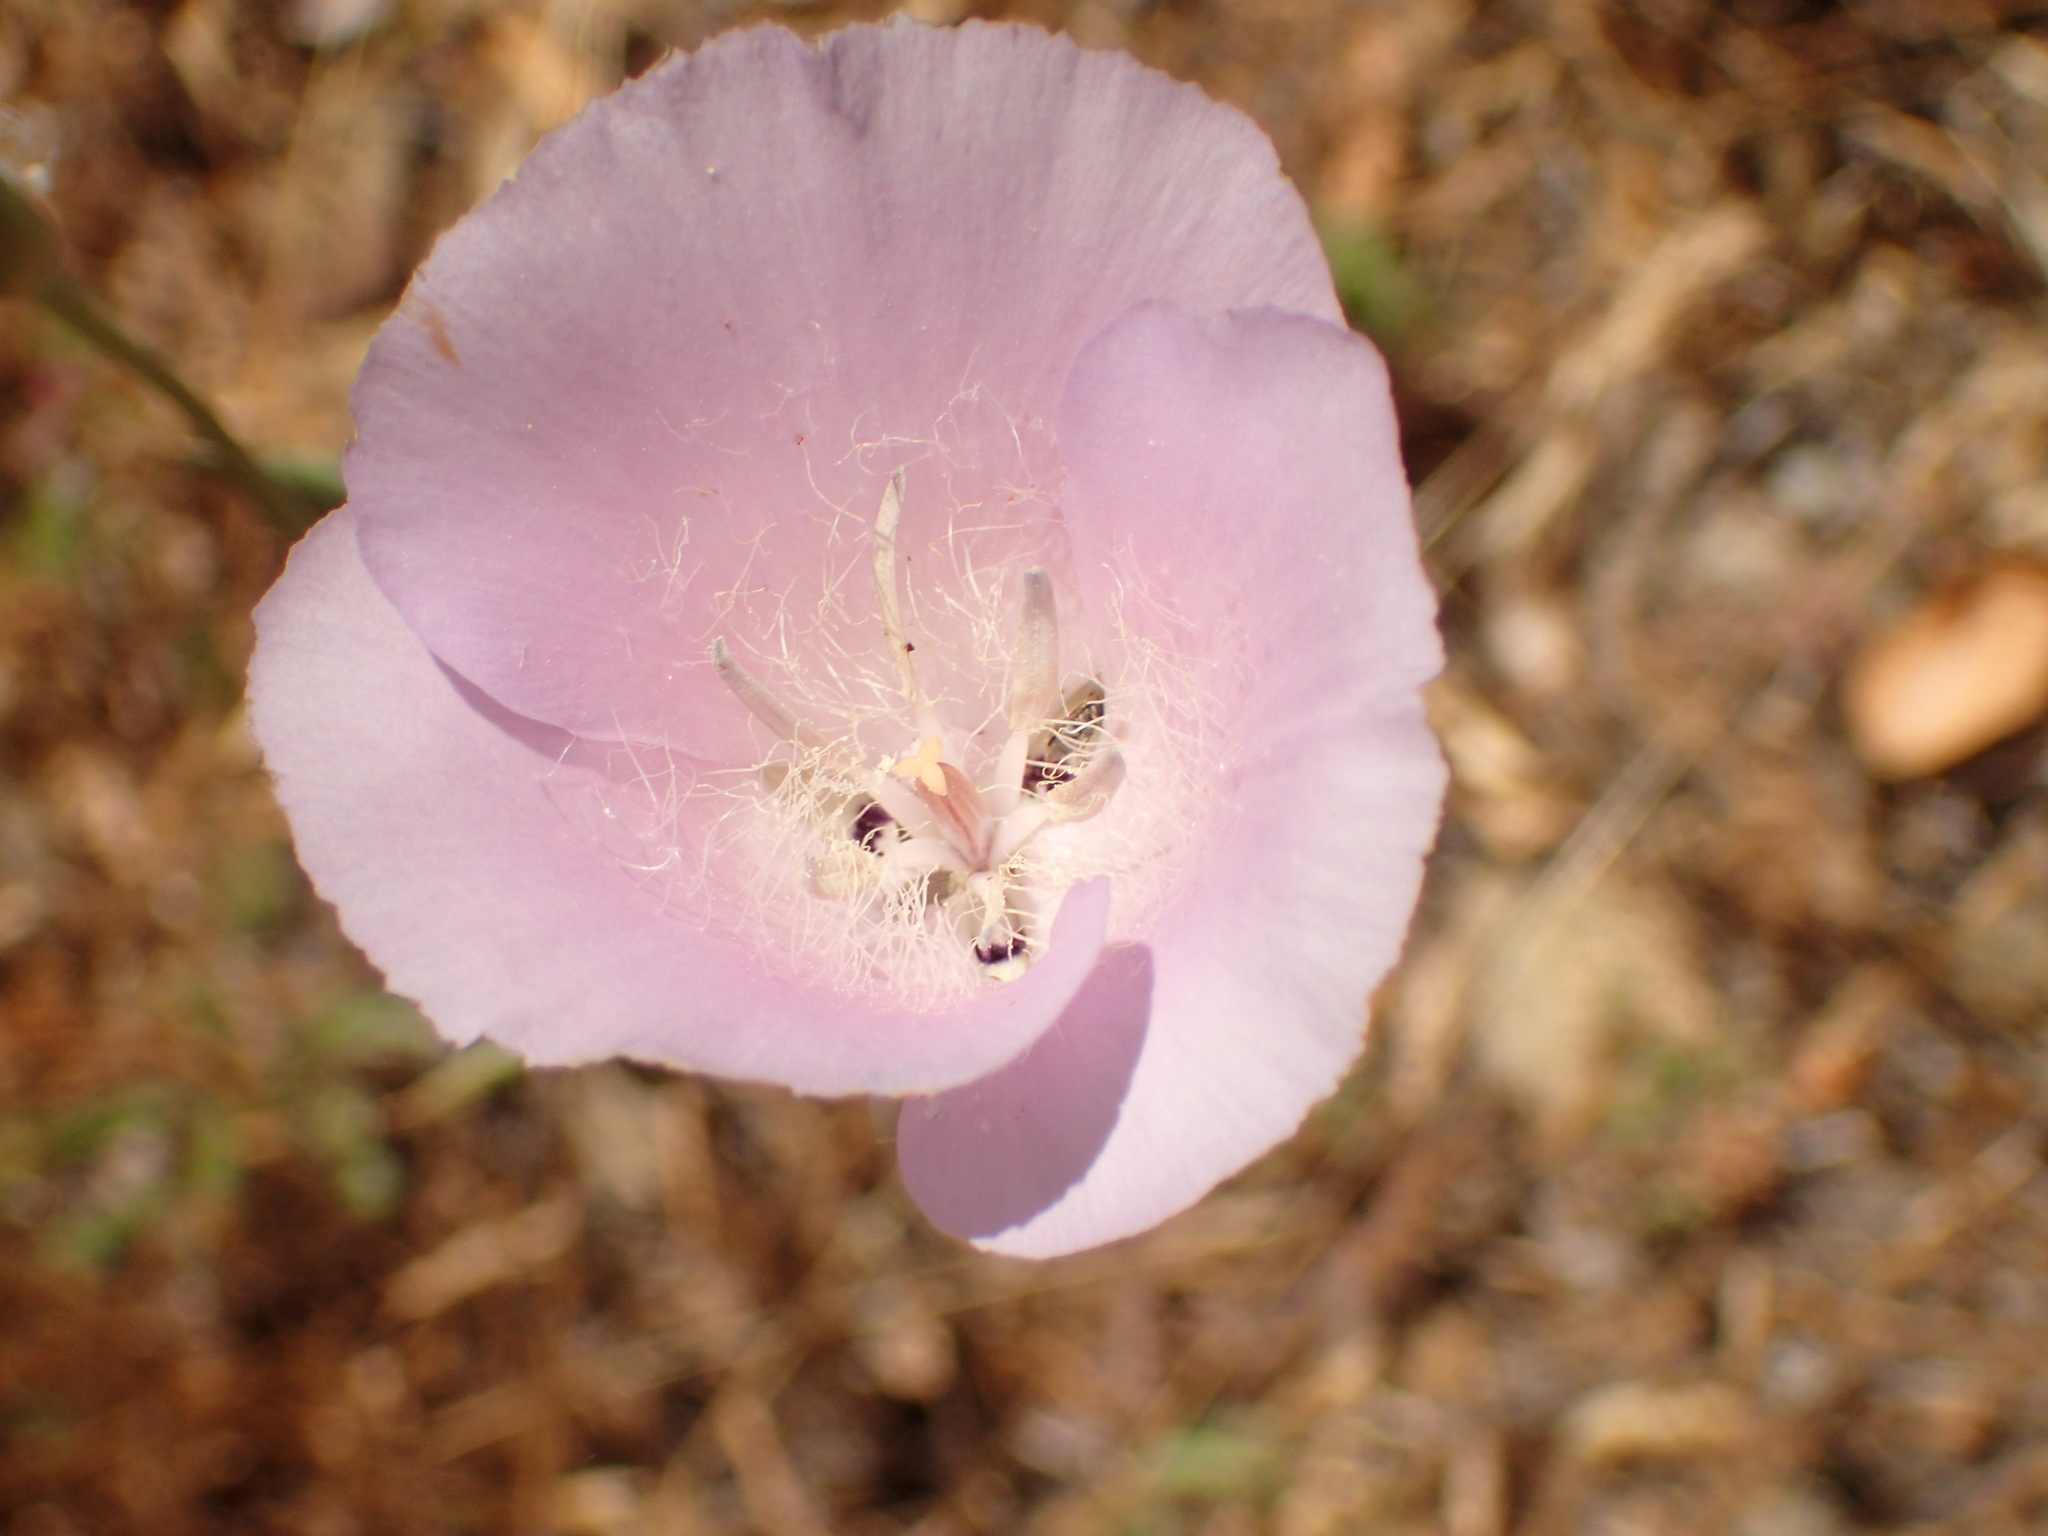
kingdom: Plantae
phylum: Tracheophyta
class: Liliopsida
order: Liliales
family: Liliaceae
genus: Calochortus
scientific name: Calochortus splendens
